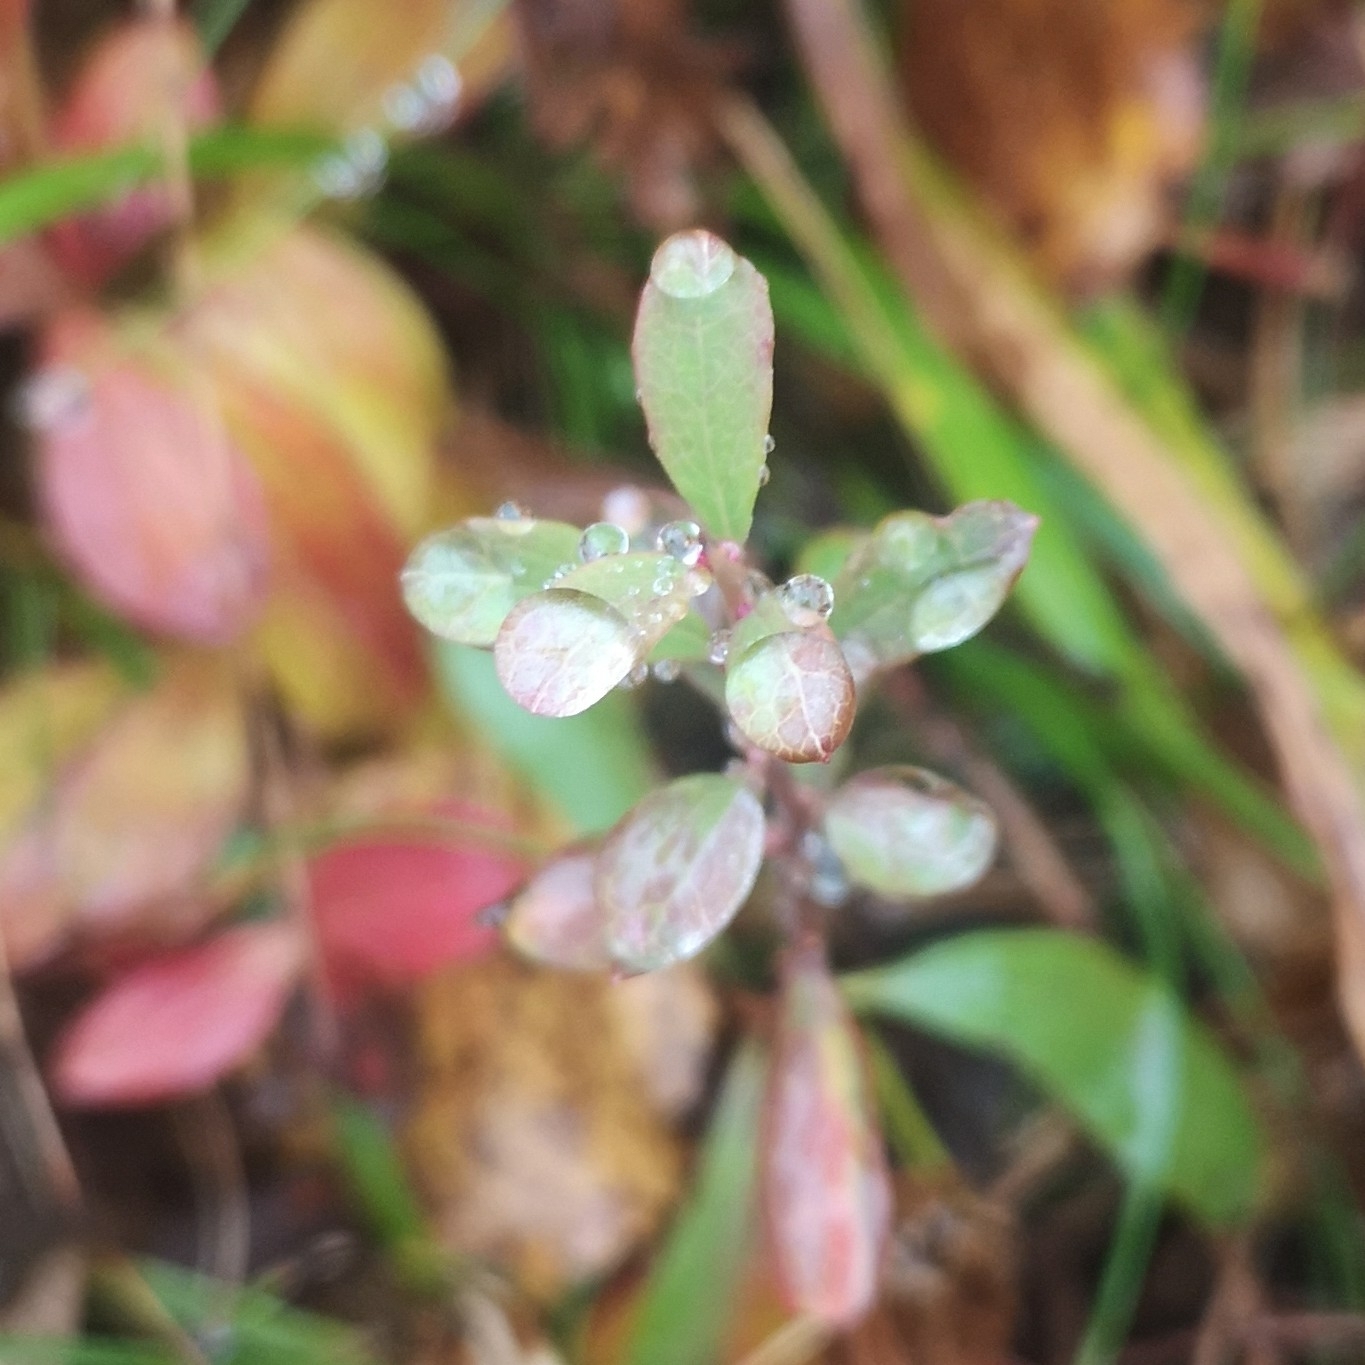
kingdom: Plantae
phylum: Tracheophyta
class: Magnoliopsida
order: Ericales
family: Ericaceae
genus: Vaccinium
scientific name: Vaccinium uliginosum
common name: Bog bilberry
